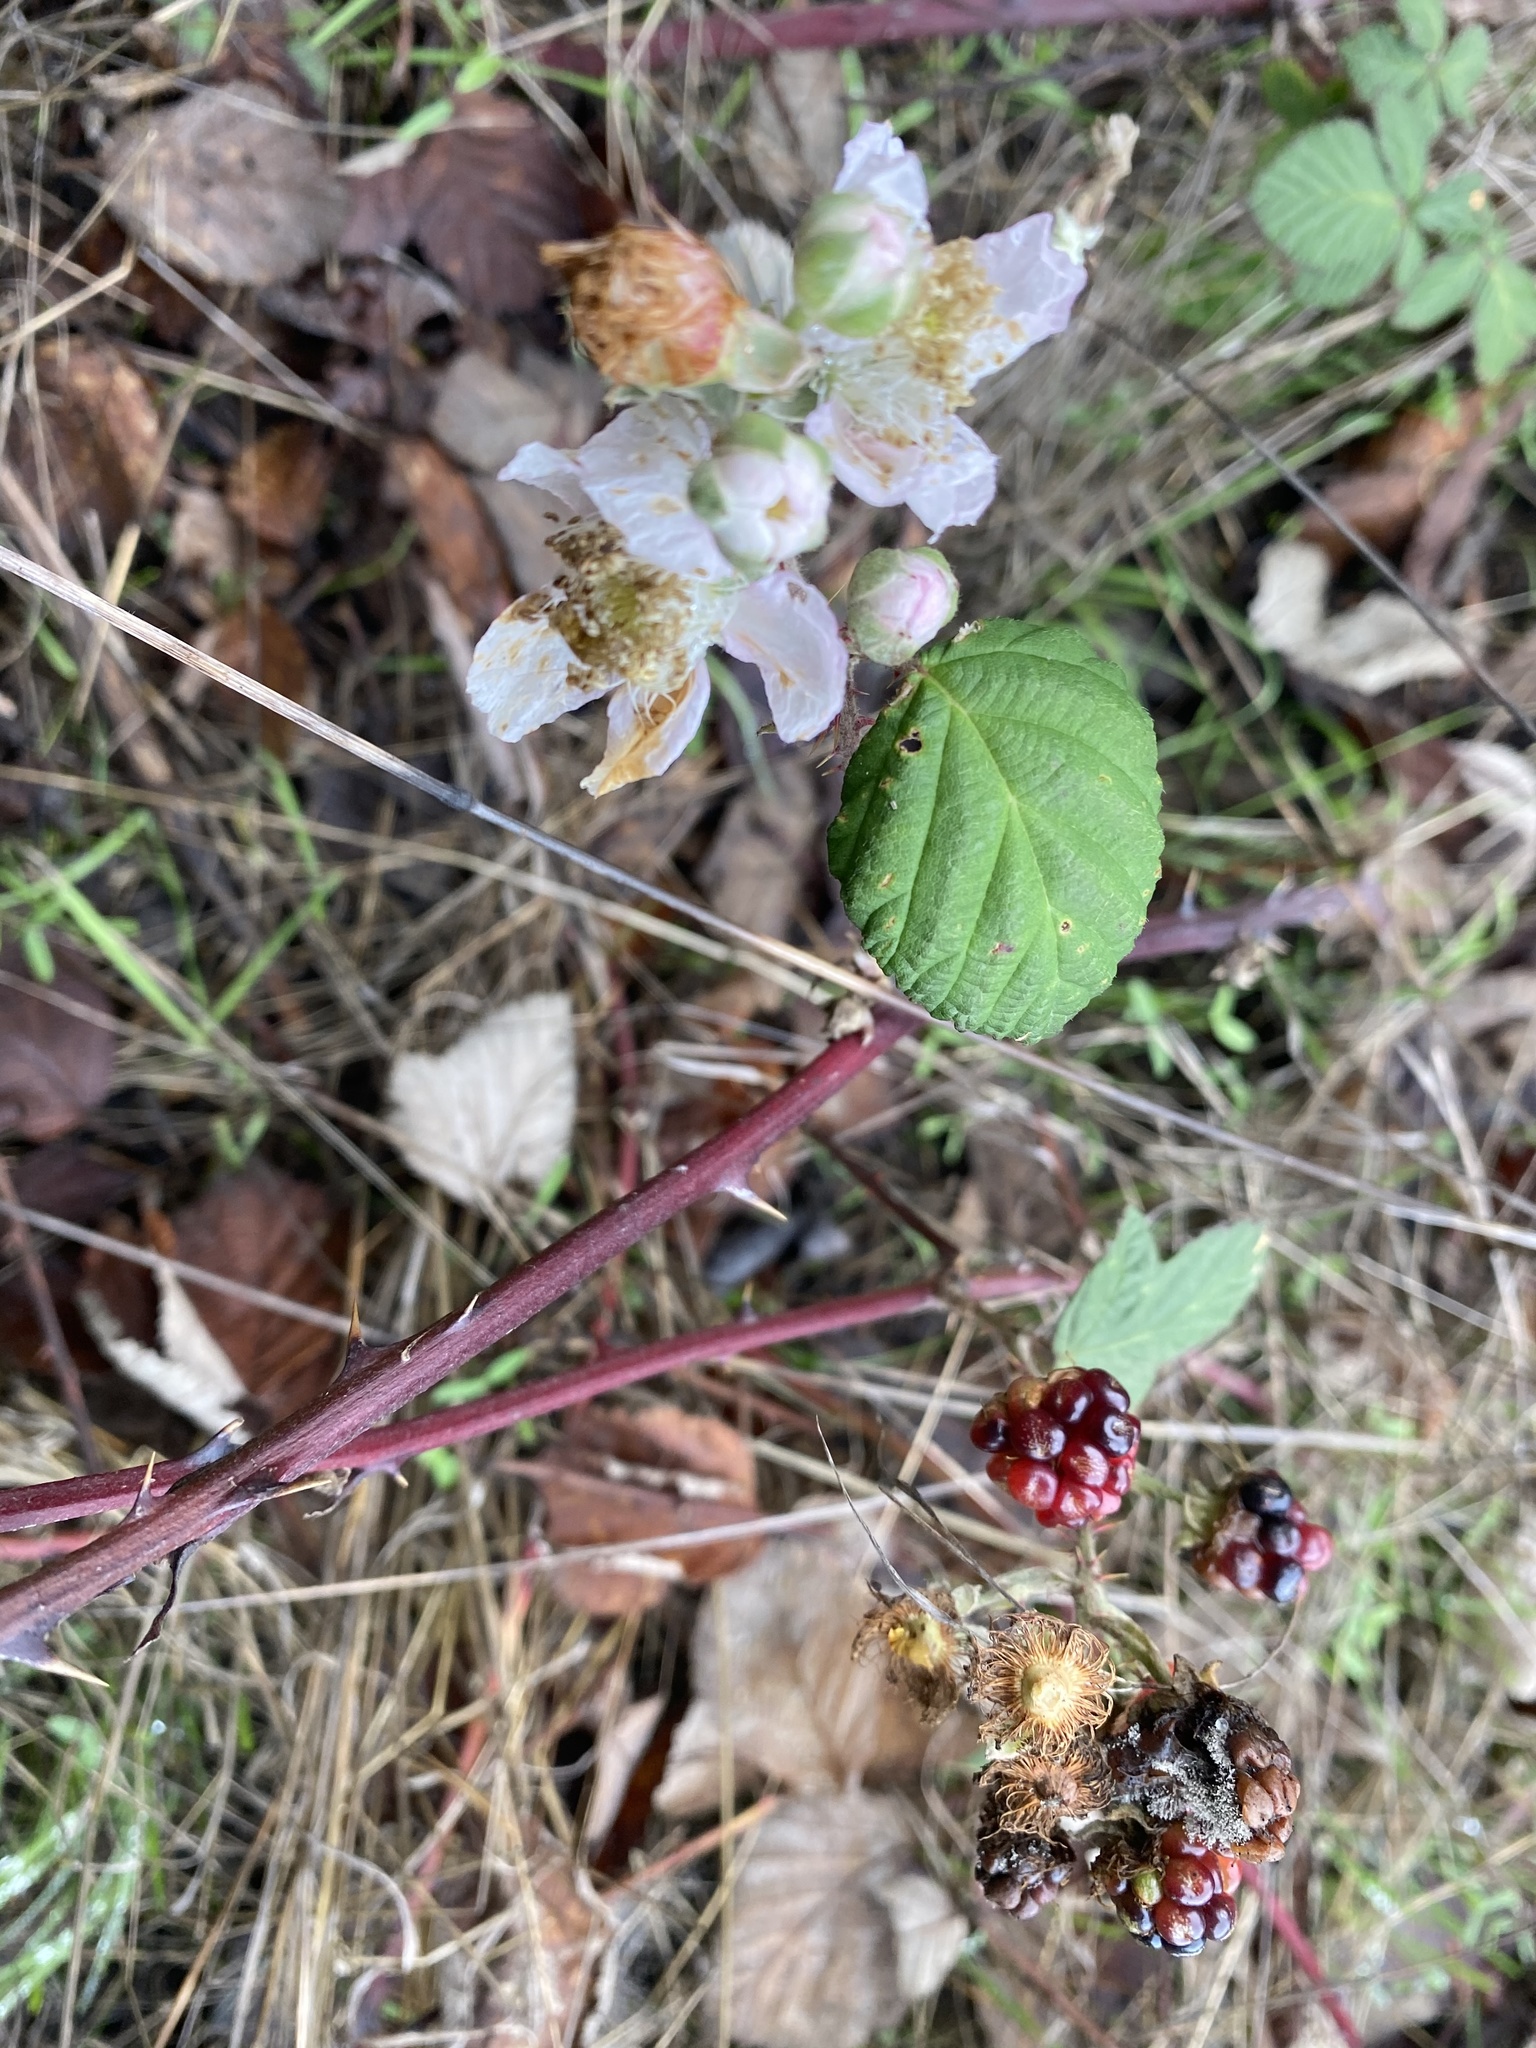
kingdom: Plantae
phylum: Tracheophyta
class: Magnoliopsida
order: Rosales
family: Rosaceae
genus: Rubus
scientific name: Rubus armeniacus
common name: Himalayan blackberry
